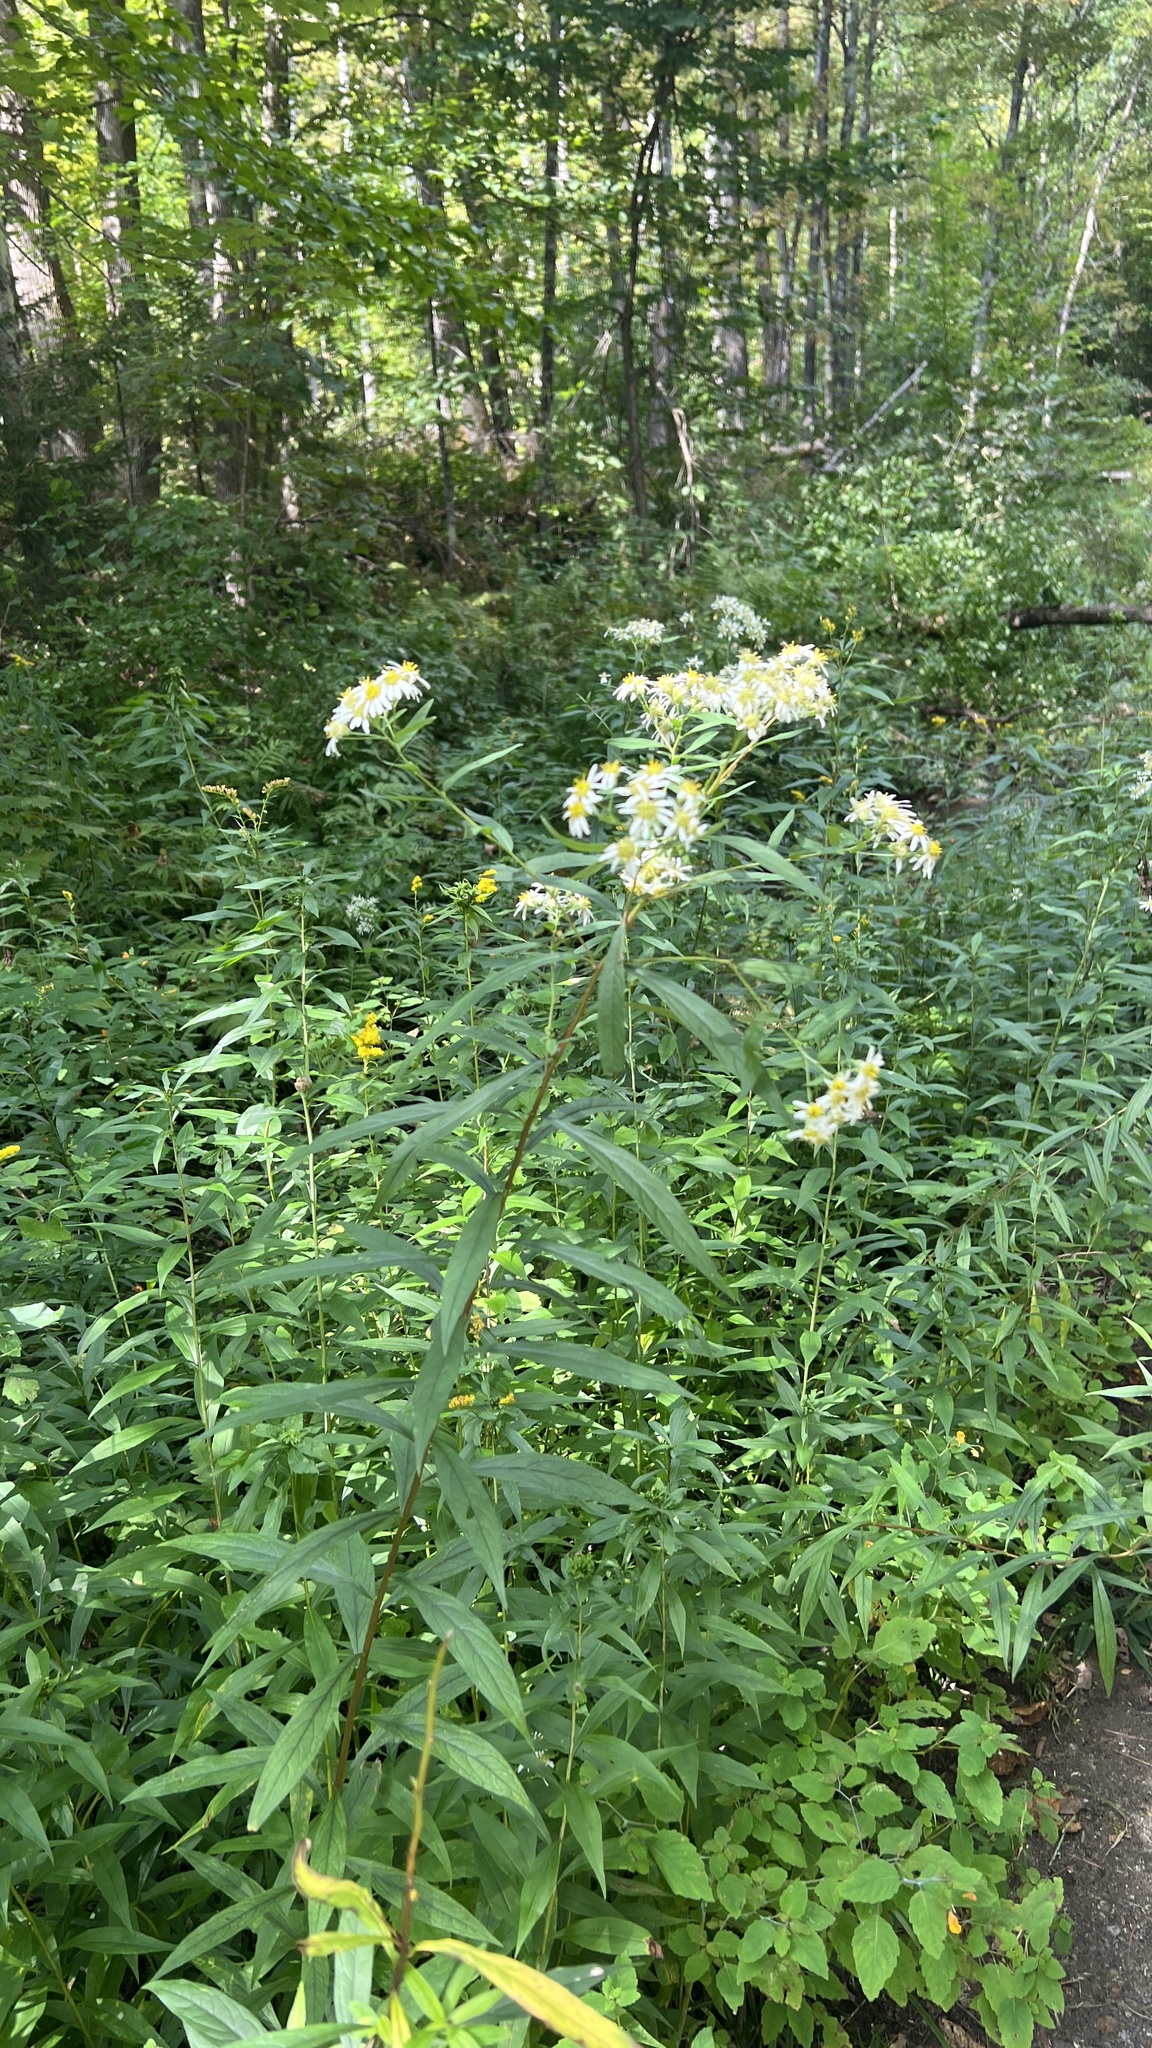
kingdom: Plantae
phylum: Tracheophyta
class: Magnoliopsida
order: Asterales
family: Asteraceae
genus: Doellingeria
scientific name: Doellingeria umbellata
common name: Flat-top white aster
